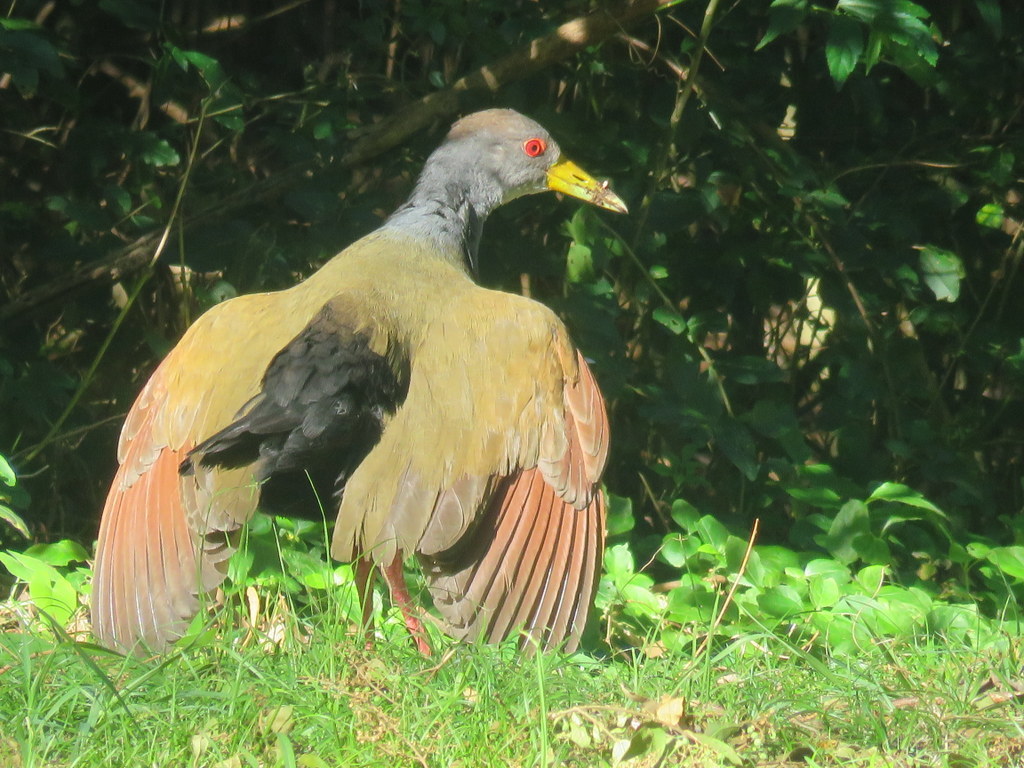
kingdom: Animalia
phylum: Chordata
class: Aves
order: Gruiformes
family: Rallidae
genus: Aramides
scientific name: Aramides cajanea
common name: Gray-necked wood-rail
